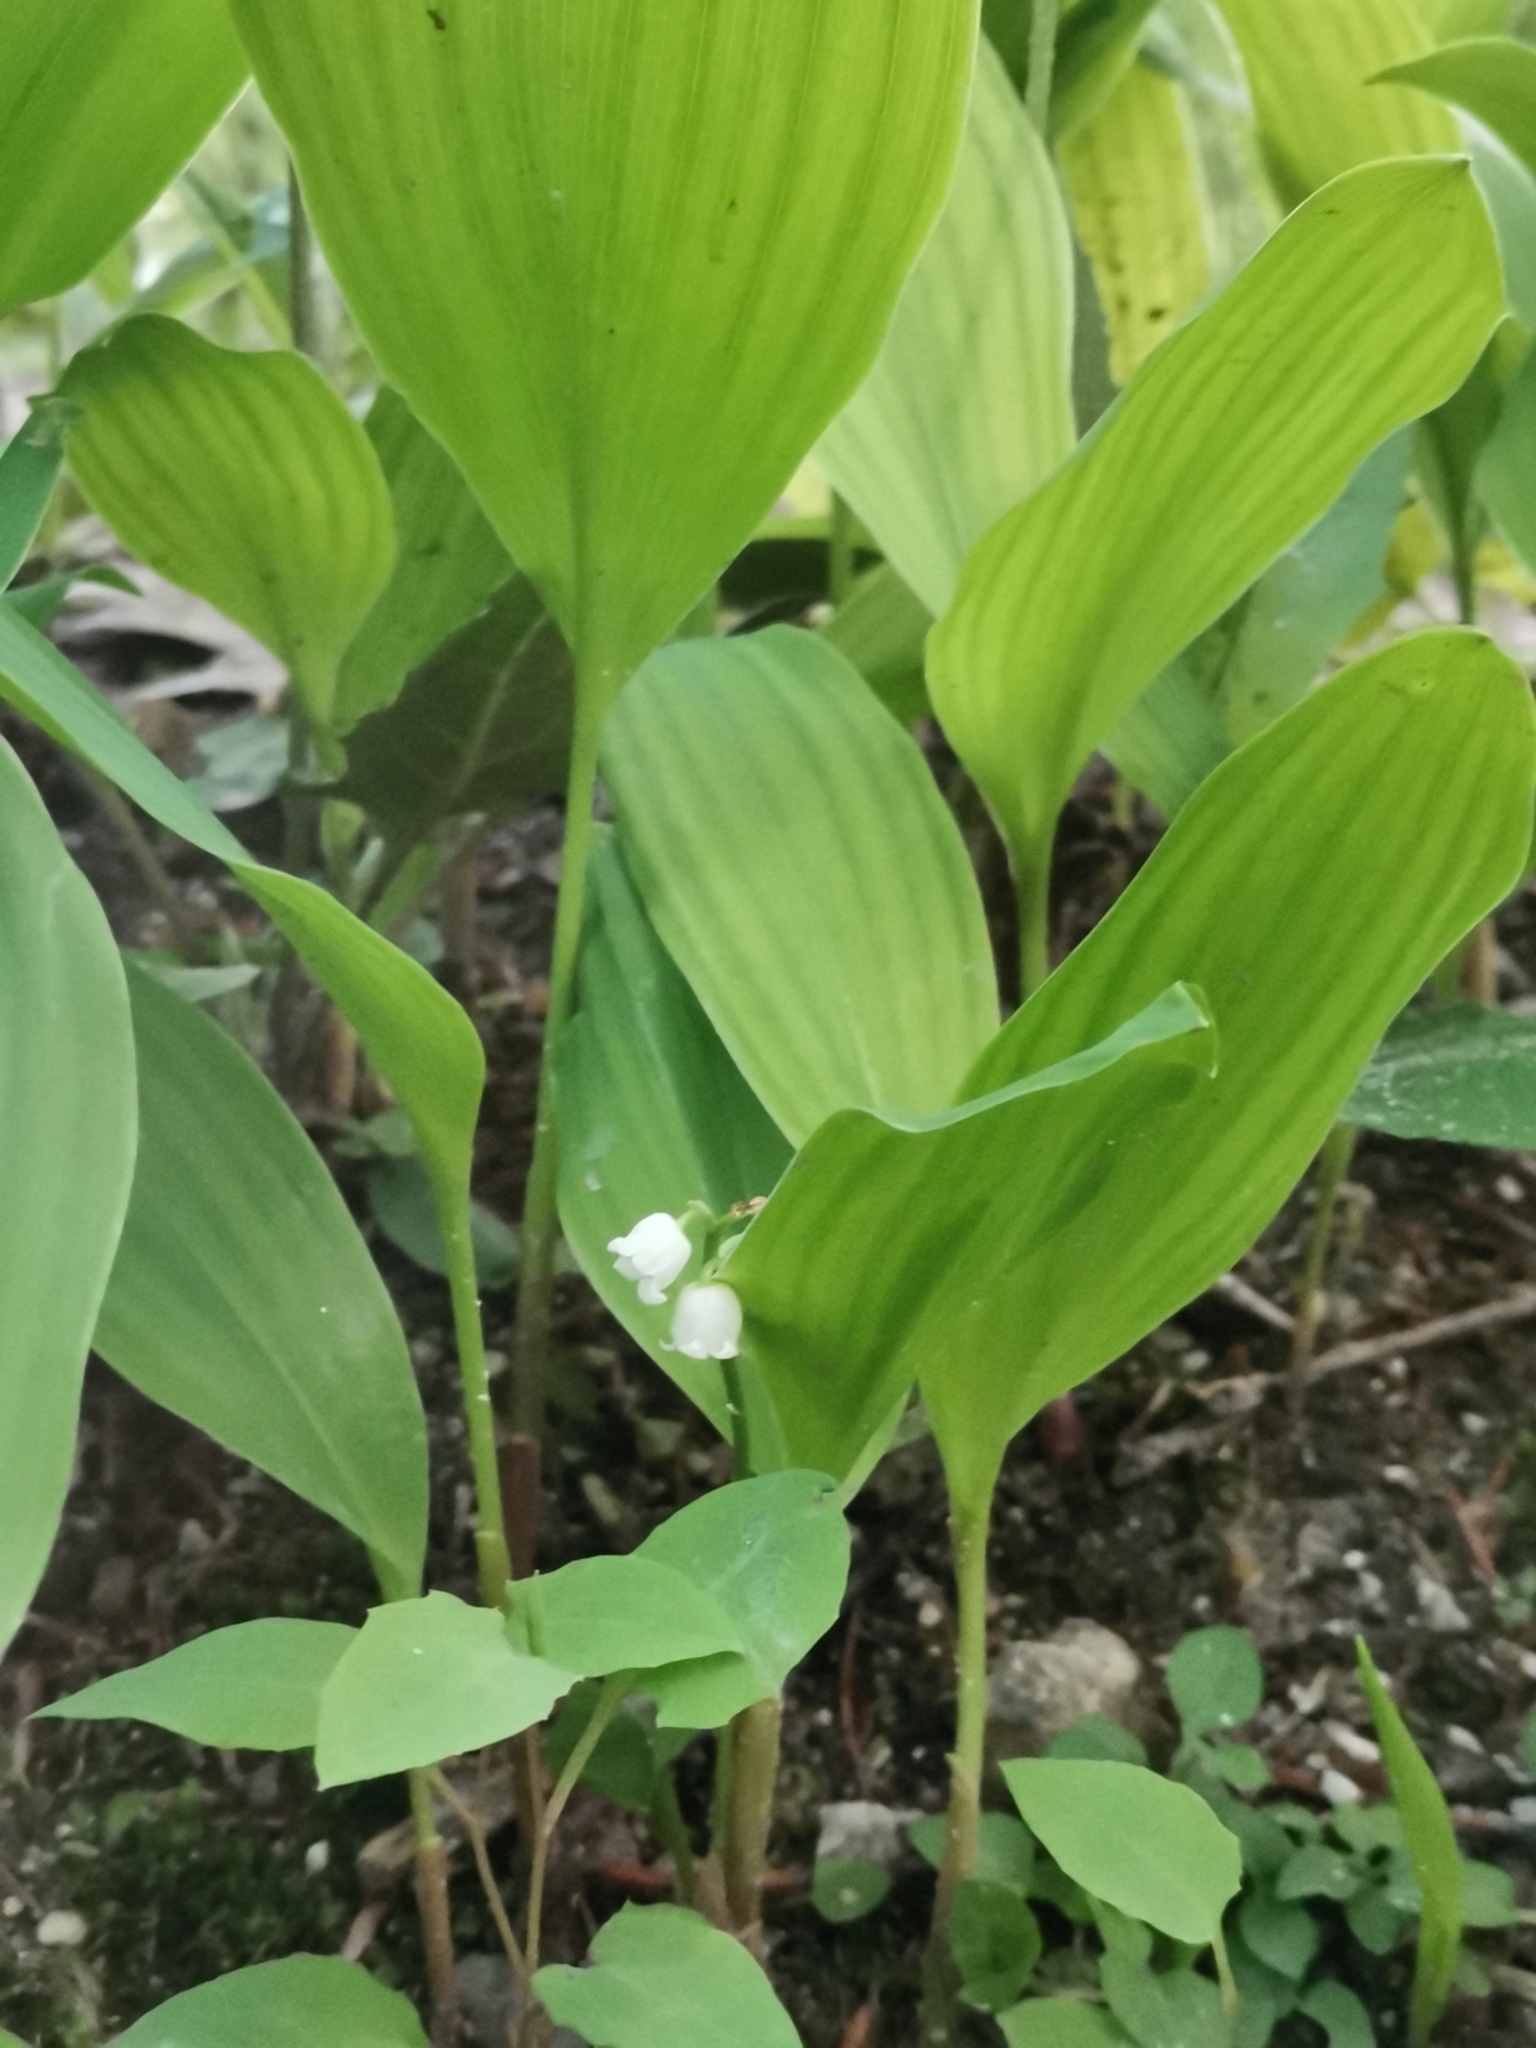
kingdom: Plantae
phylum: Tracheophyta
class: Liliopsida
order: Asparagales
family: Asparagaceae
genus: Convallaria
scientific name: Convallaria majalis
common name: Lily-of-the-valley
